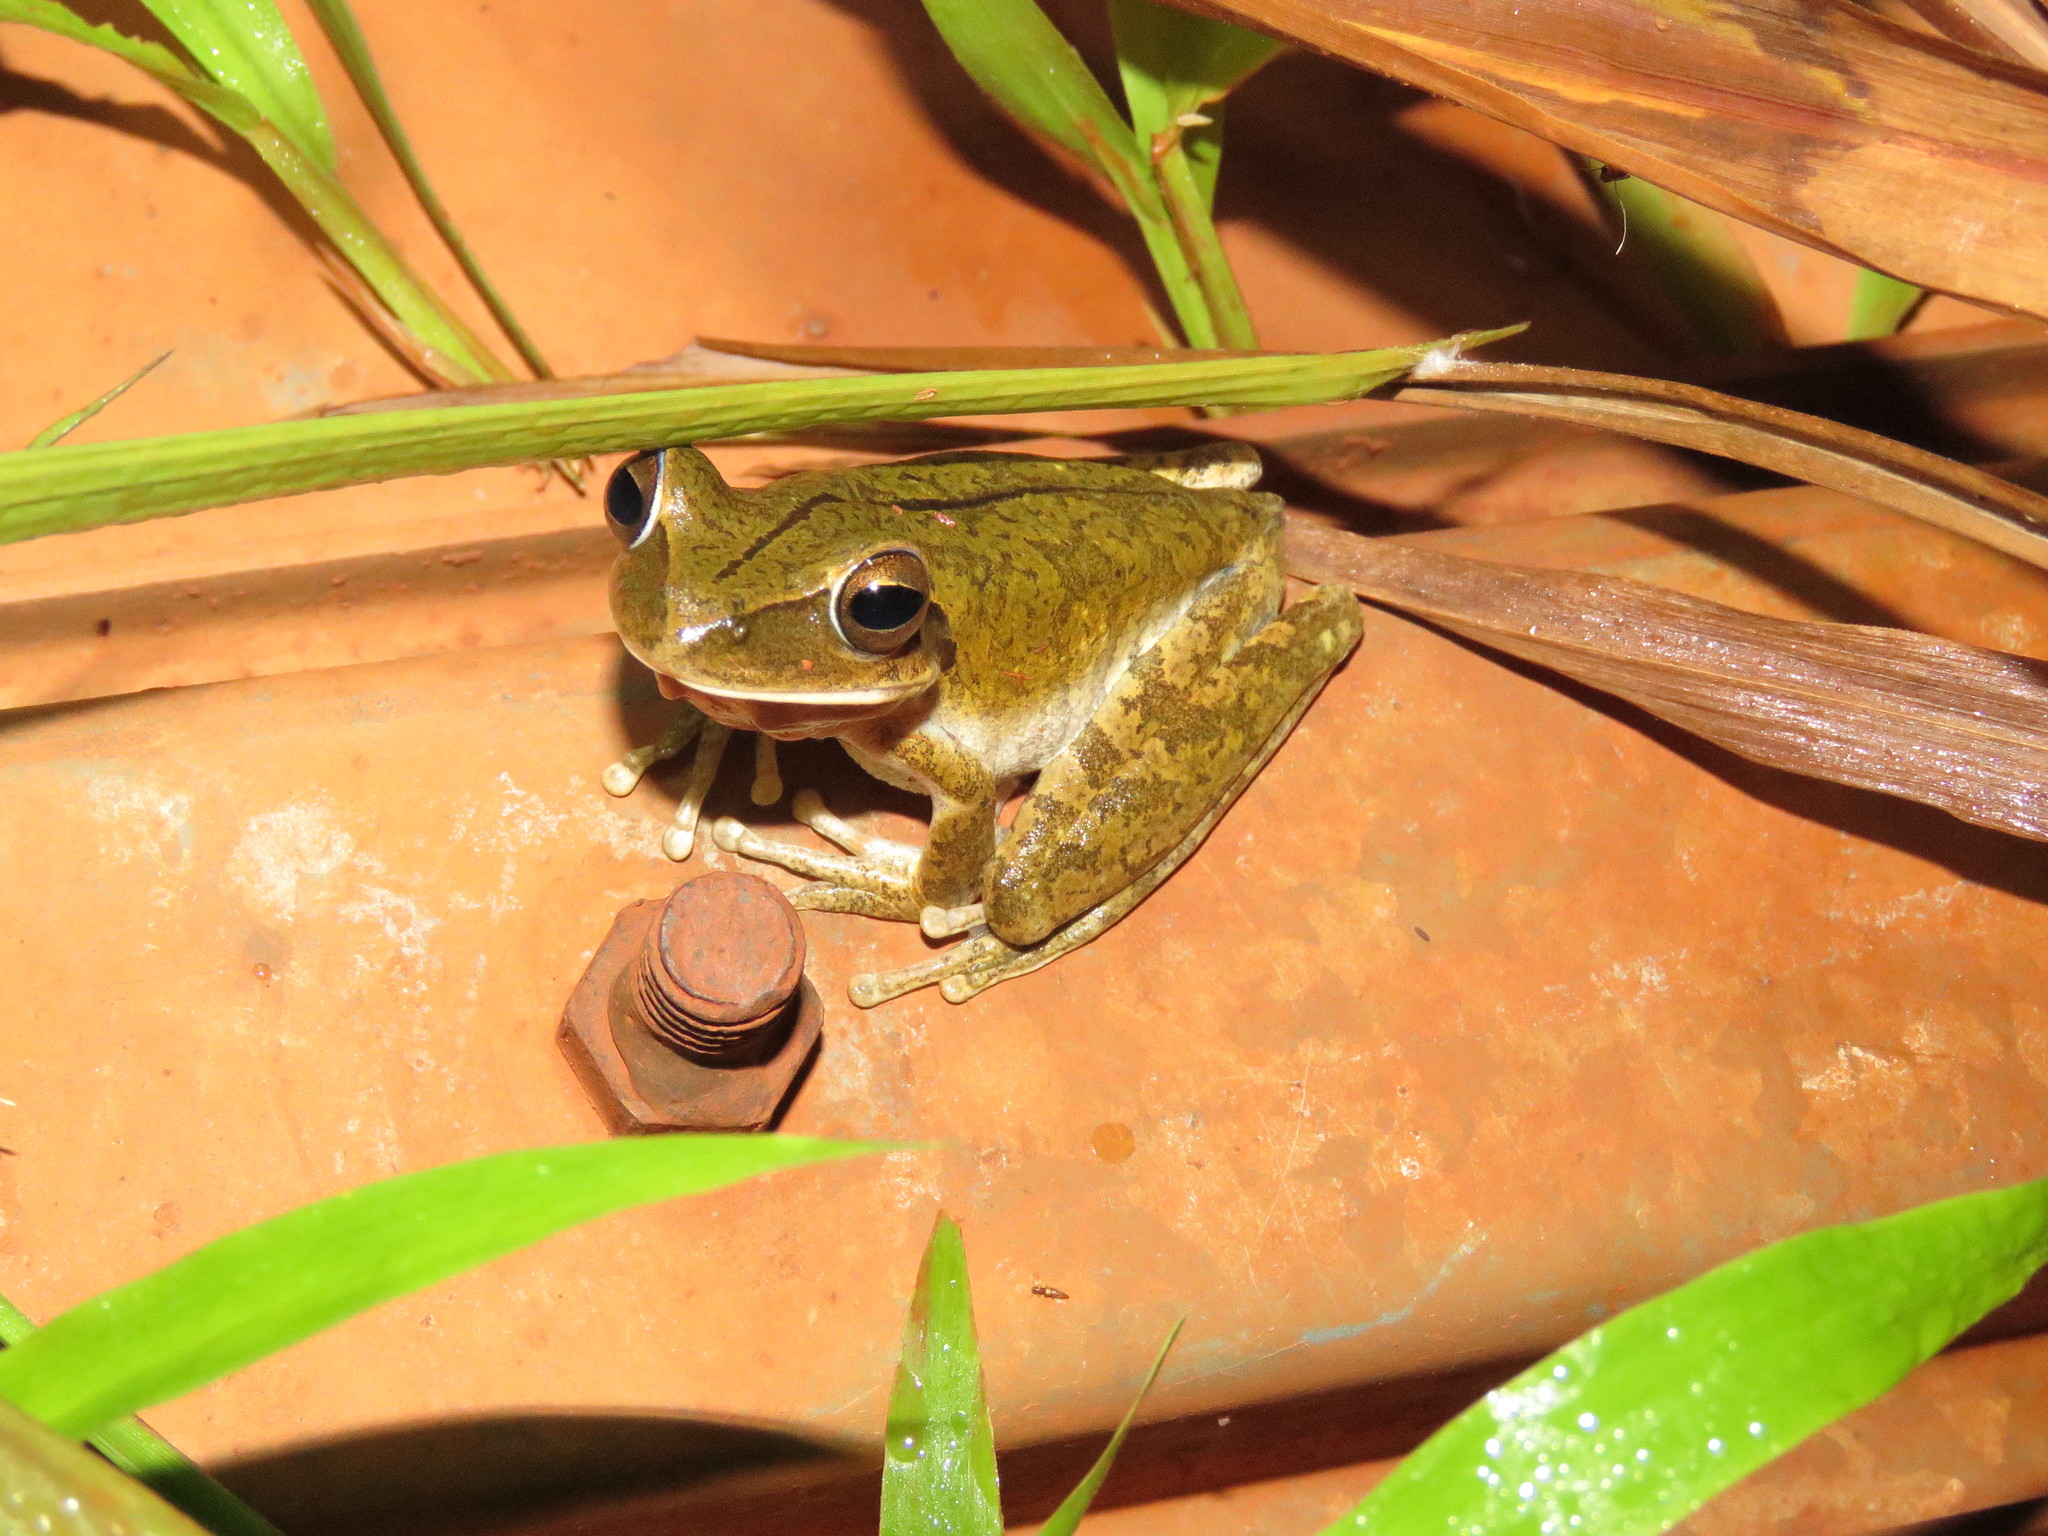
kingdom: Animalia
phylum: Chordata
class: Amphibia
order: Anura
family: Hylidae
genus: Boana
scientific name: Boana raniceps
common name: Chaco treefrog
